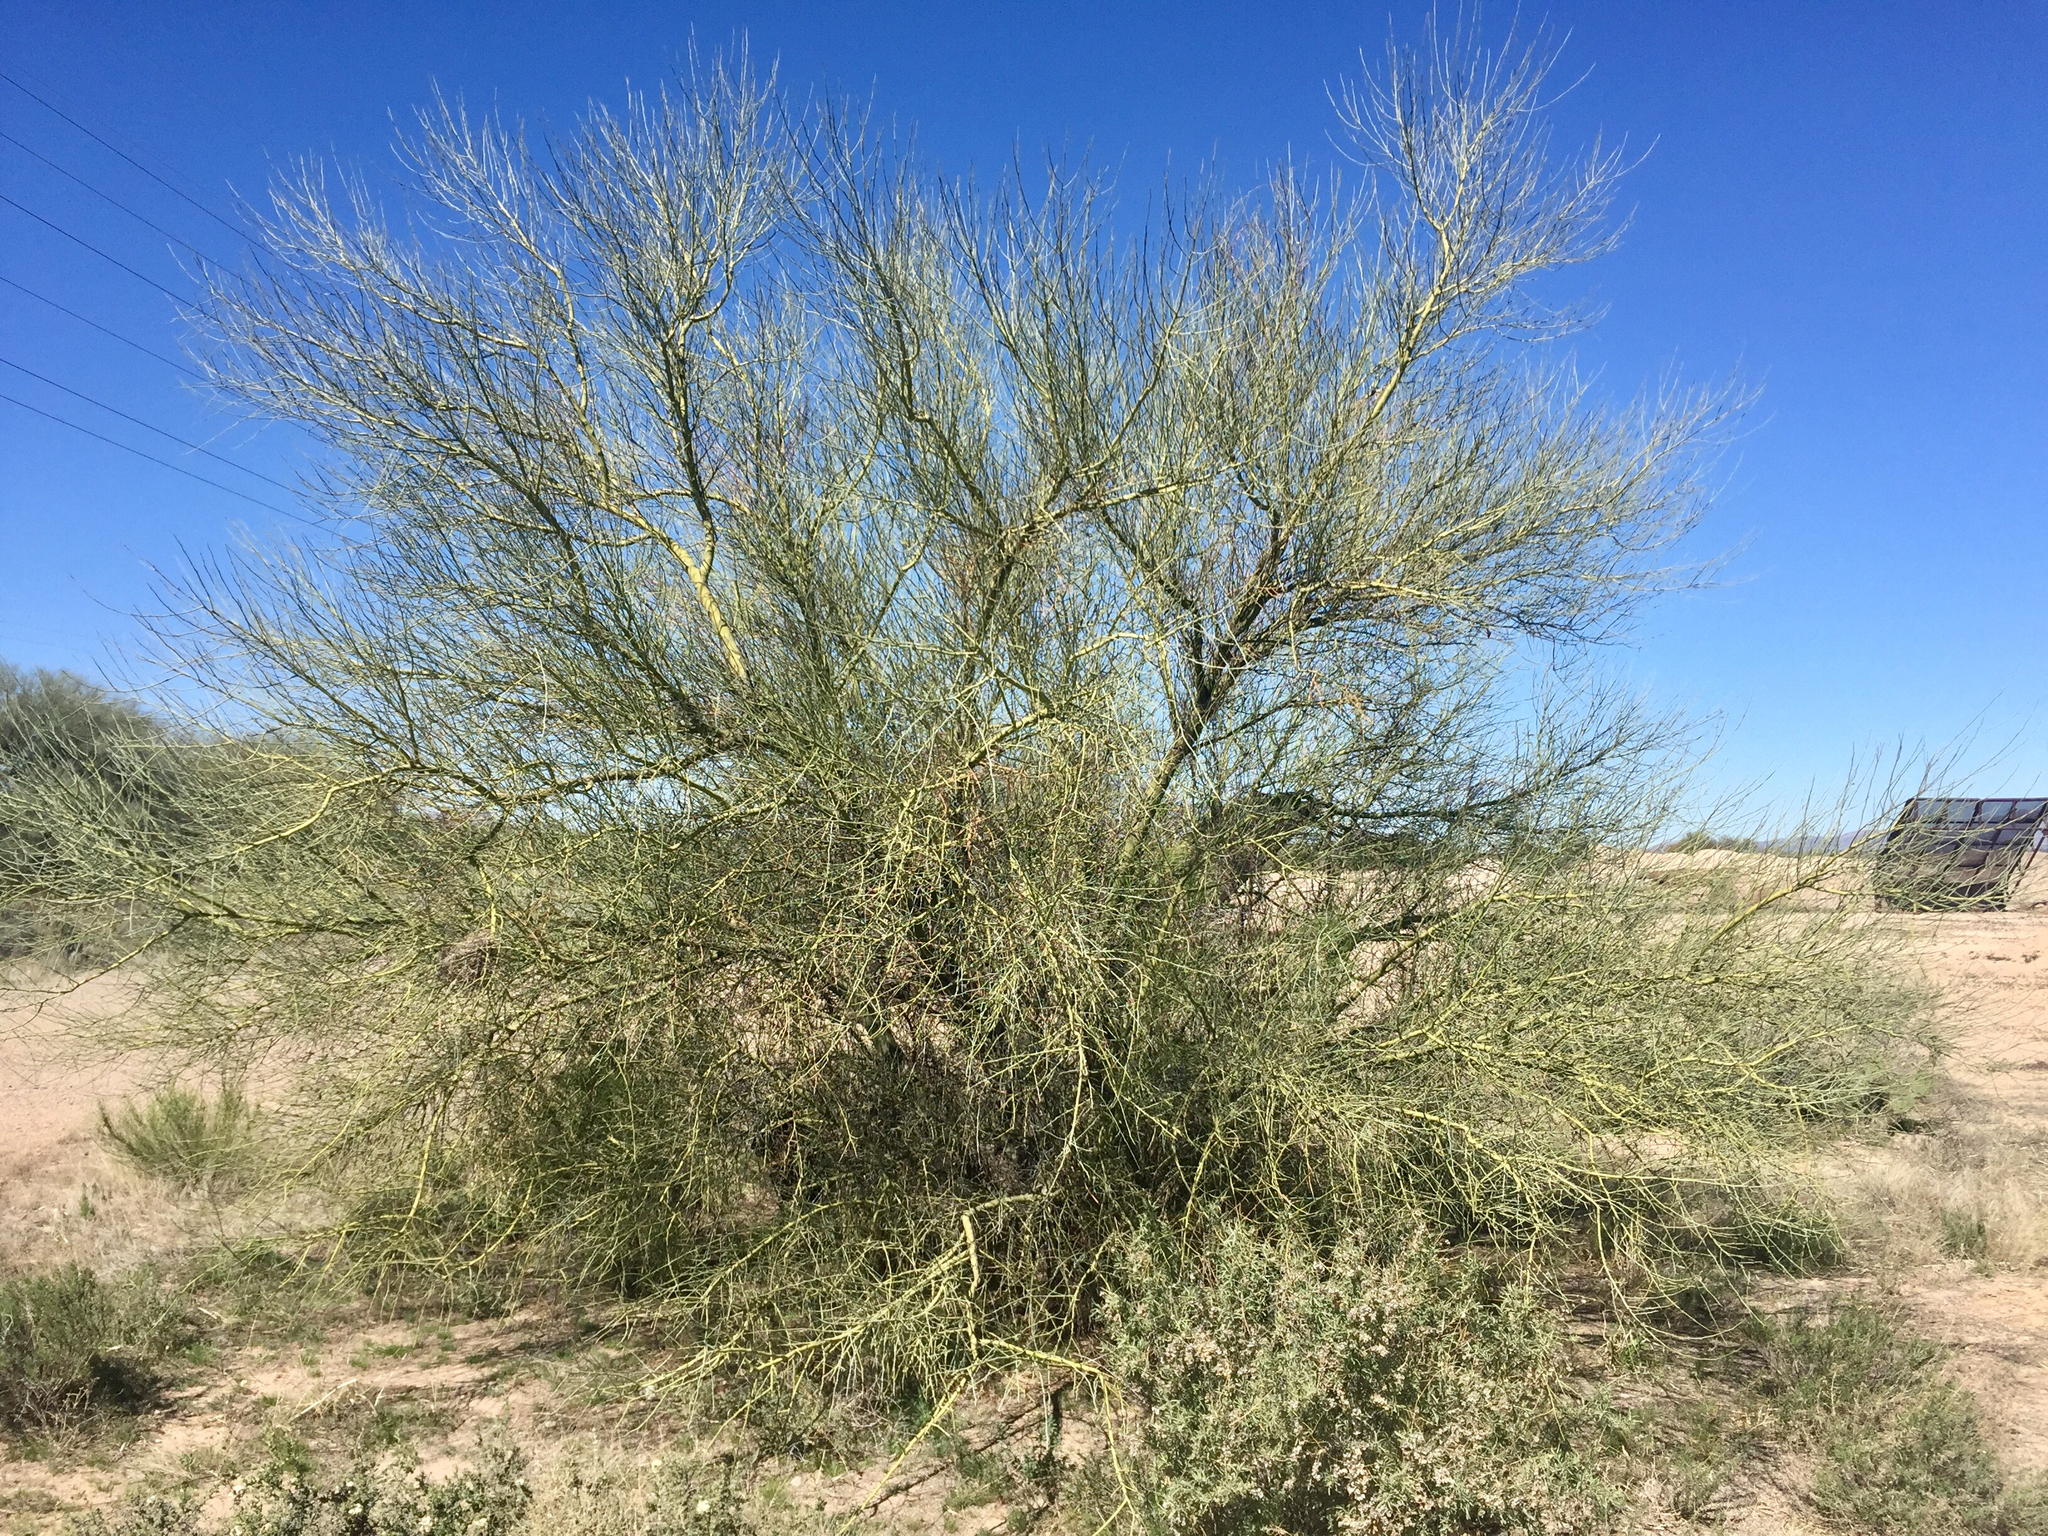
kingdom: Plantae
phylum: Tracheophyta
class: Magnoliopsida
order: Fabales
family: Fabaceae
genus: Parkinsonia
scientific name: Parkinsonia florida
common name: Blue paloverde
